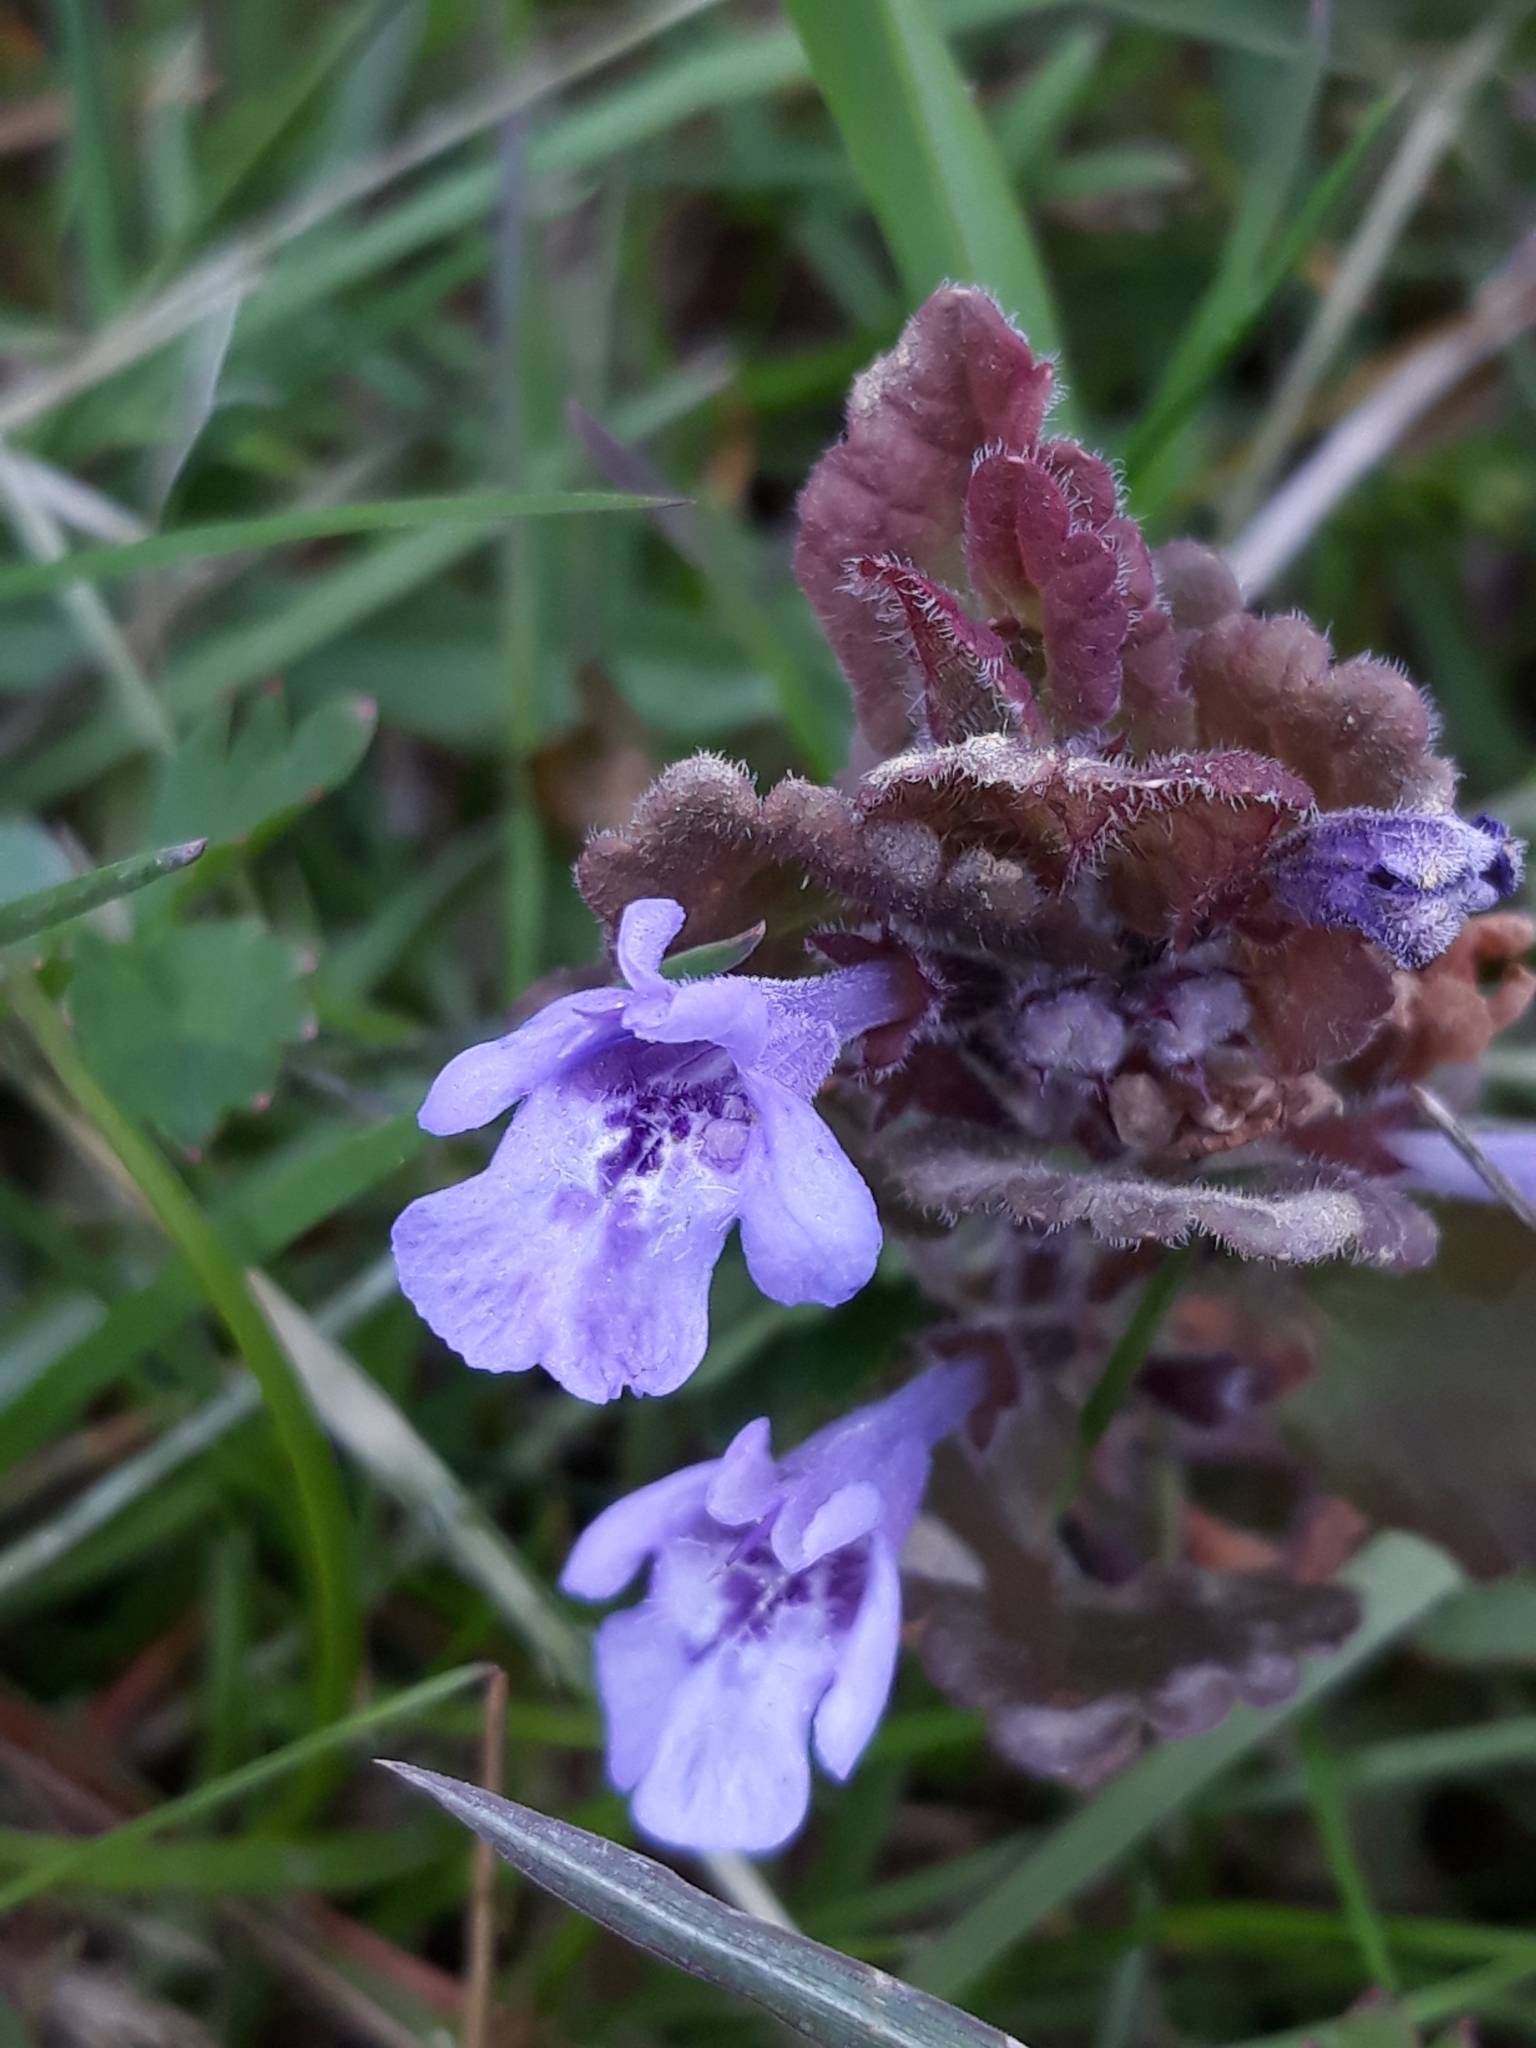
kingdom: Plantae
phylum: Tracheophyta
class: Magnoliopsida
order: Lamiales
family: Lamiaceae
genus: Glechoma
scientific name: Glechoma hederacea
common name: Ground ivy
